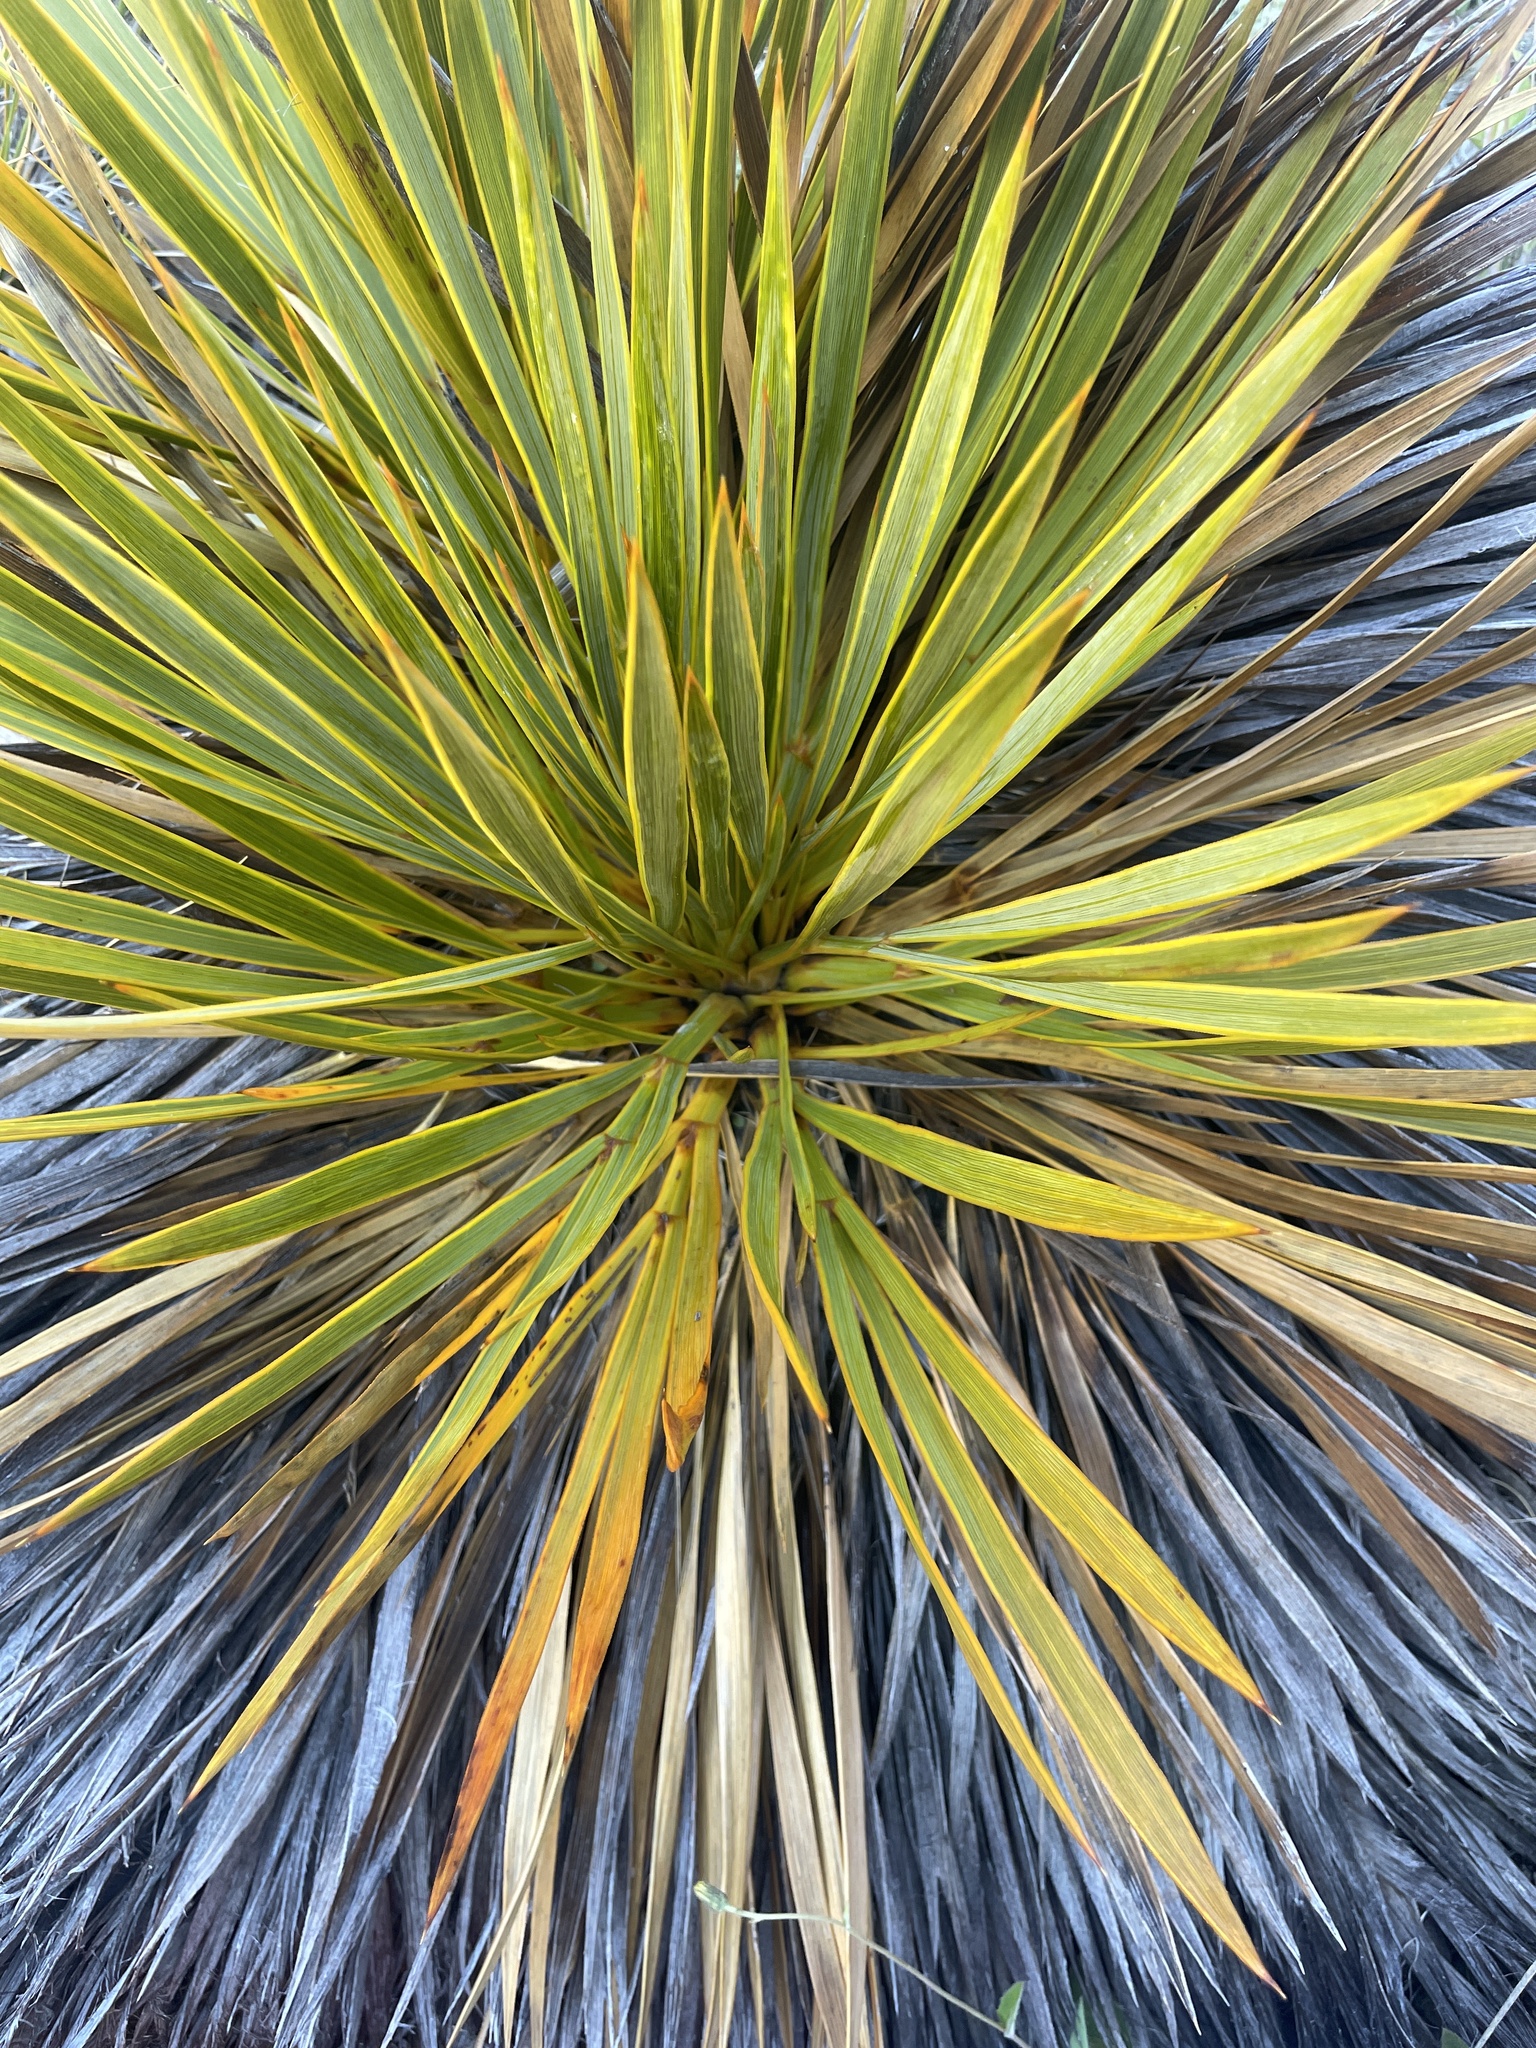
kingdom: Plantae
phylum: Tracheophyta
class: Magnoliopsida
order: Apiales
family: Apiaceae
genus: Aciphylla
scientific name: Aciphylla aurea
